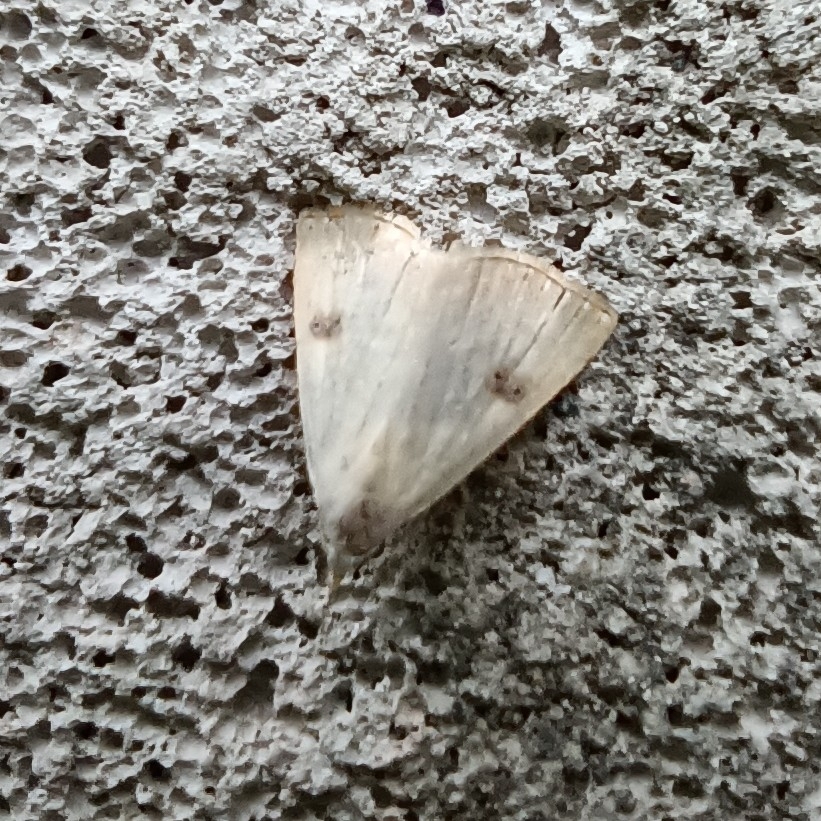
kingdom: Animalia
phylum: Arthropoda
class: Insecta
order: Lepidoptera
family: Erebidae
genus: Rivula
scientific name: Rivula sericealis
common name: Straw dot
